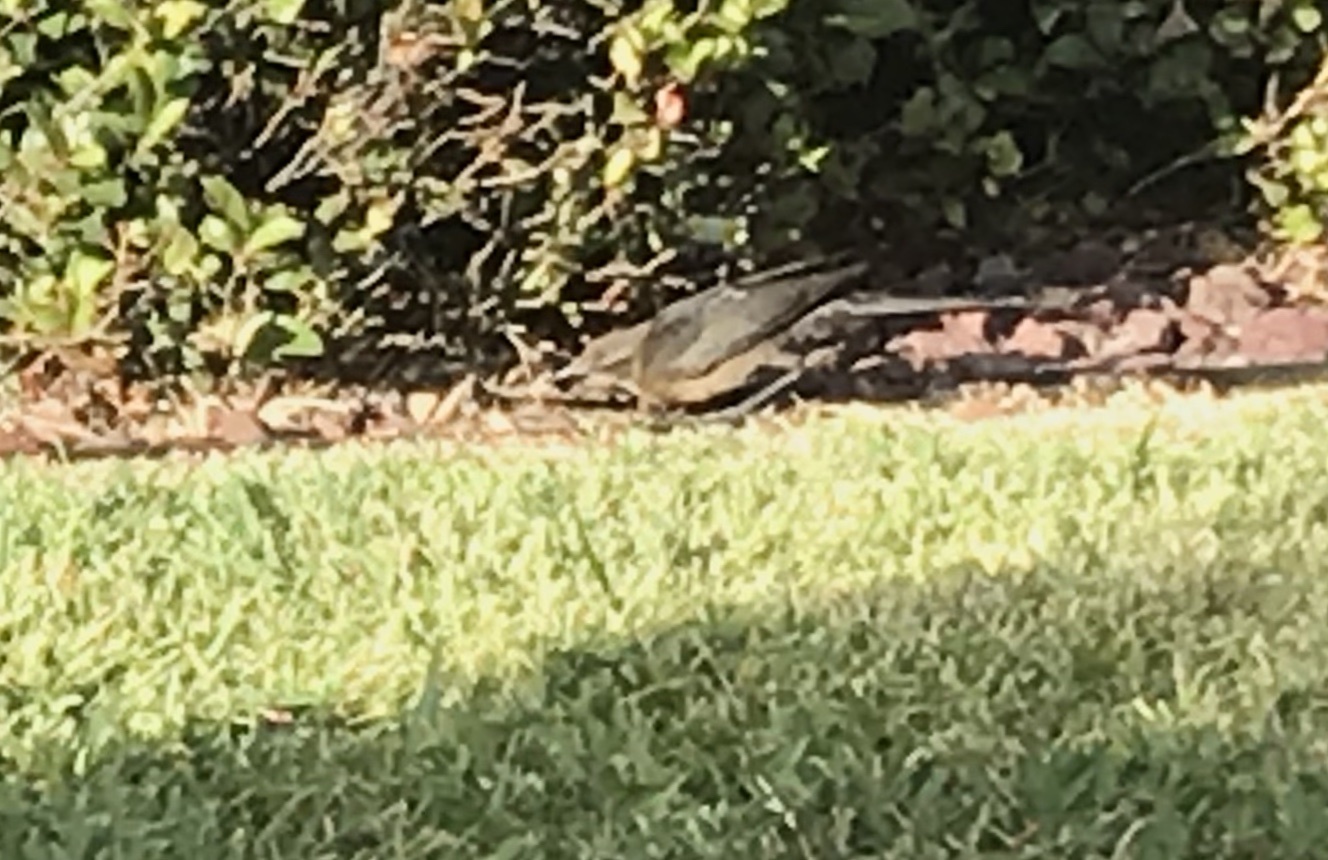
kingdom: Animalia
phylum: Chordata
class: Aves
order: Passeriformes
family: Icteridae
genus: Quiscalus
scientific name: Quiscalus mexicanus
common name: Great-tailed grackle
